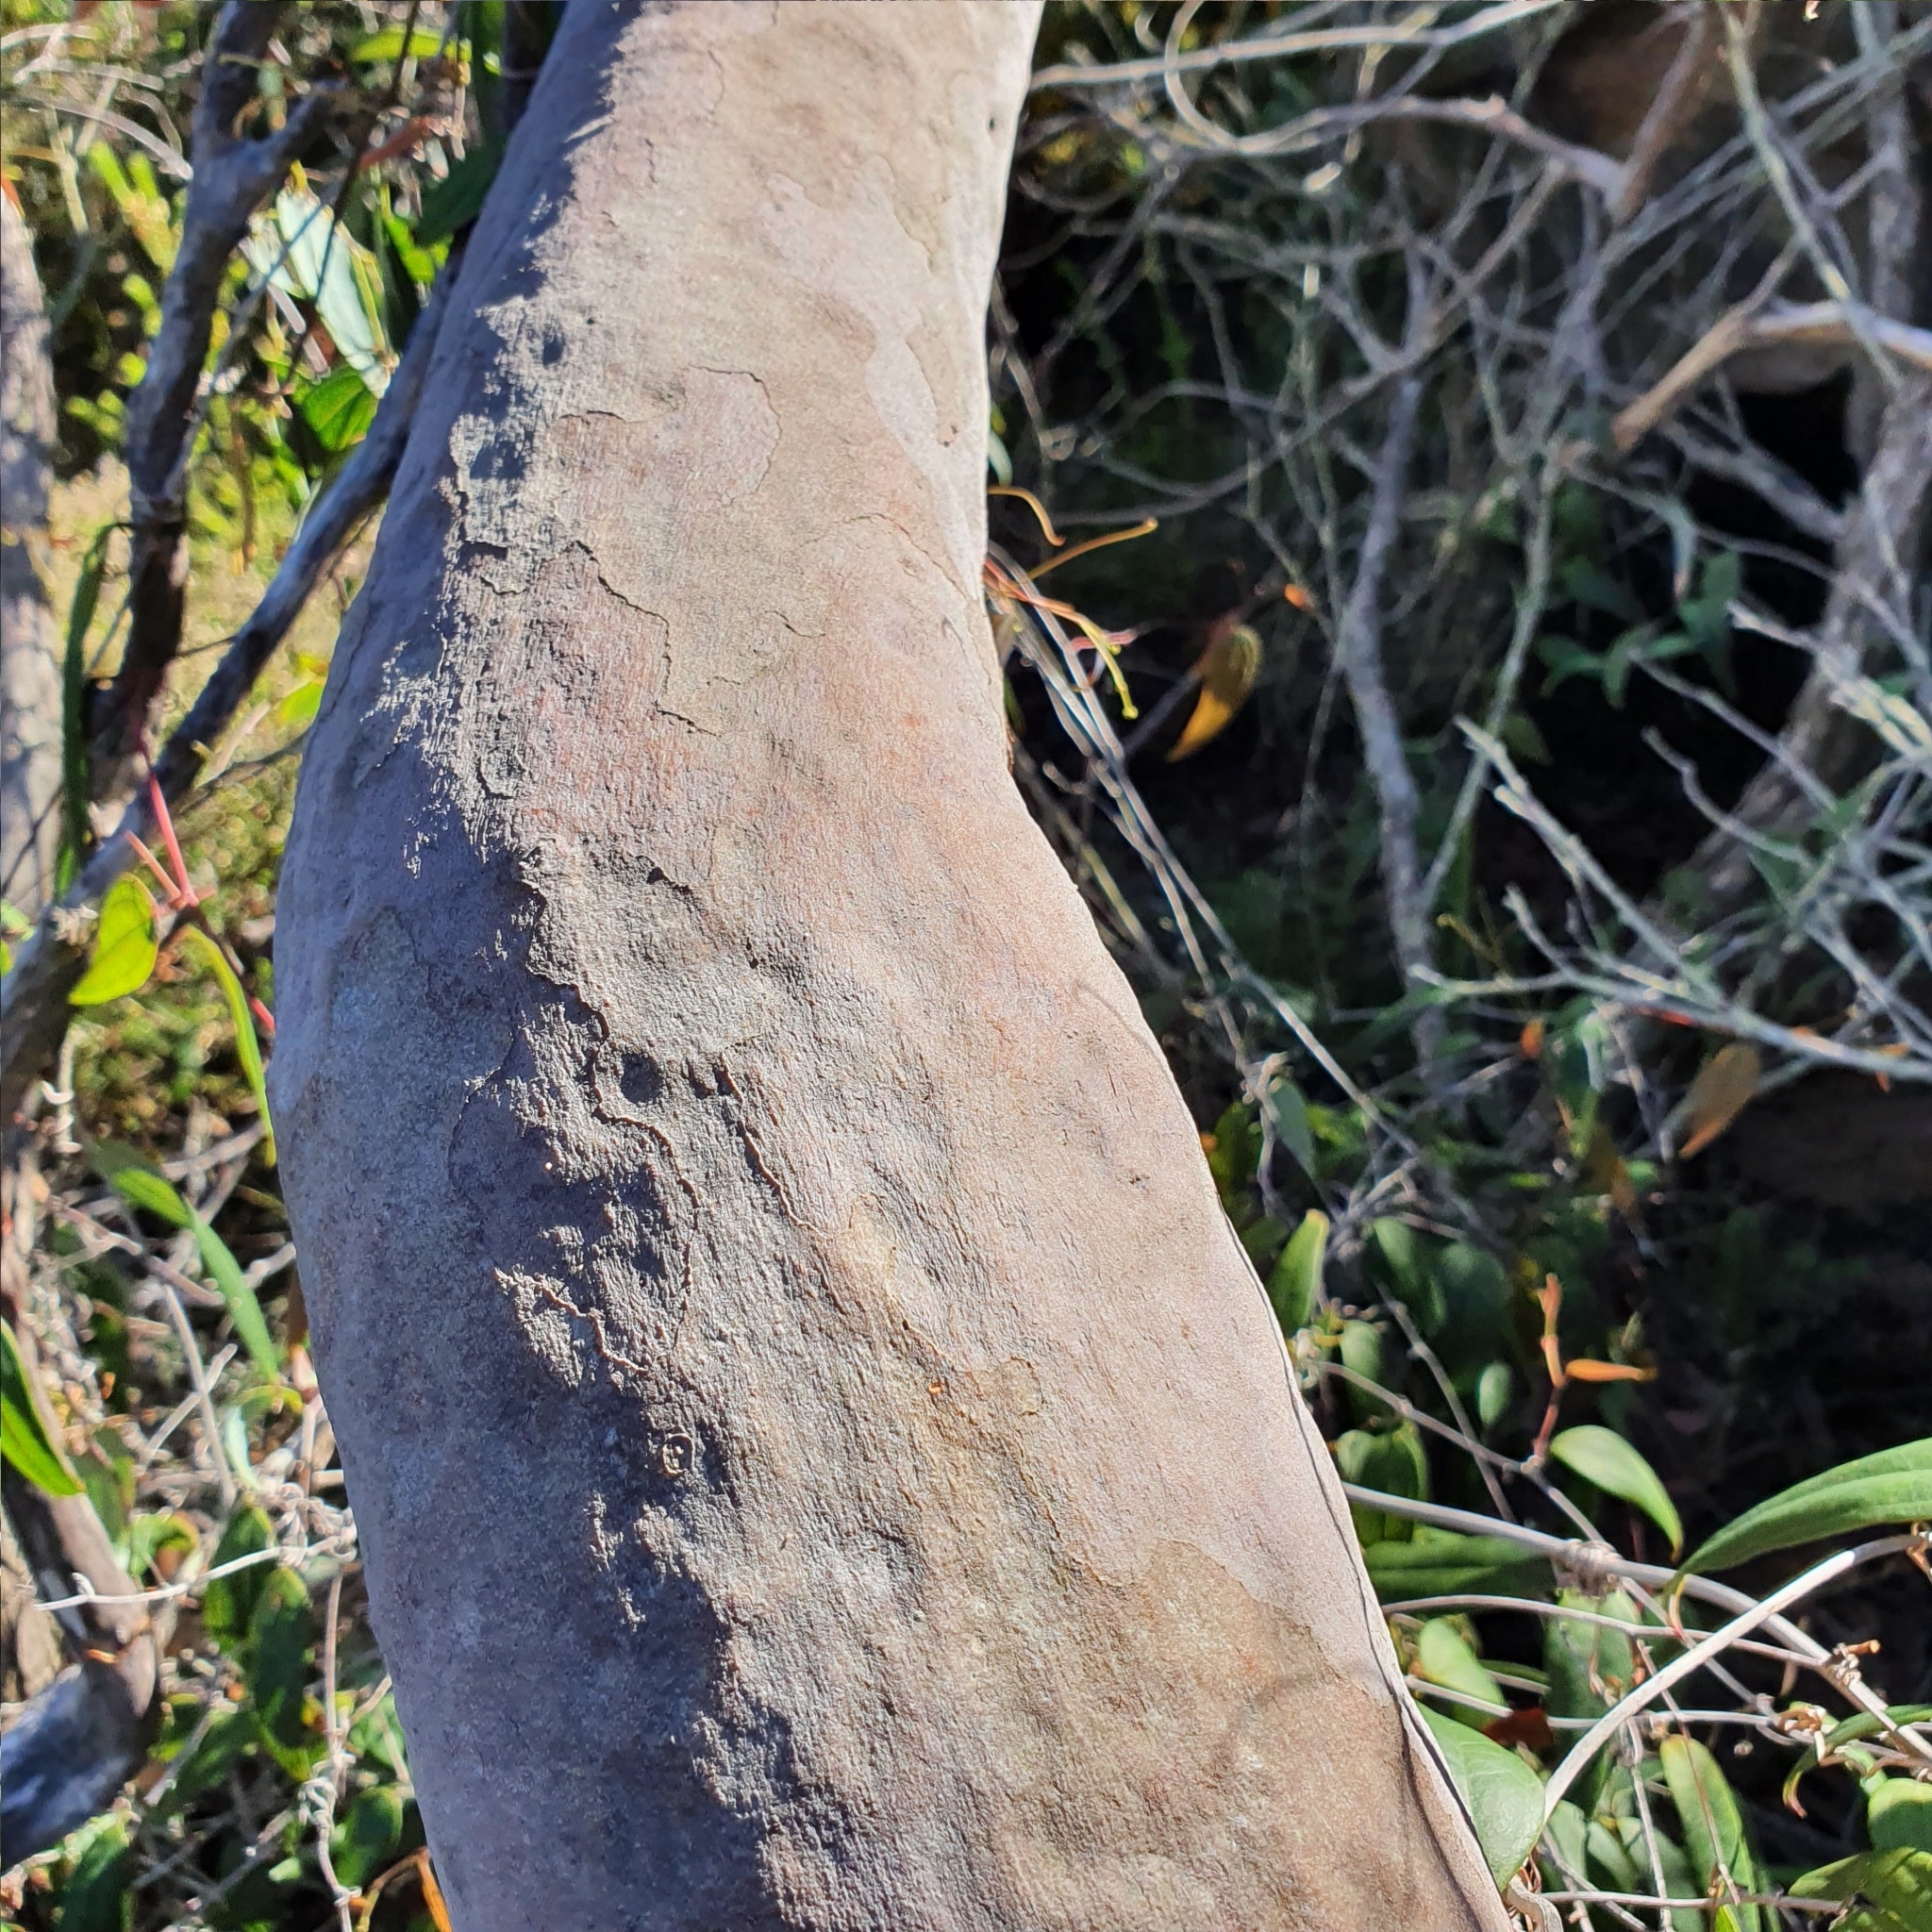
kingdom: Plantae
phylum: Tracheophyta
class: Magnoliopsida
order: Myrtales
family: Myrtaceae
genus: Angophora
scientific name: Angophora costata
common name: Gum myrtle
